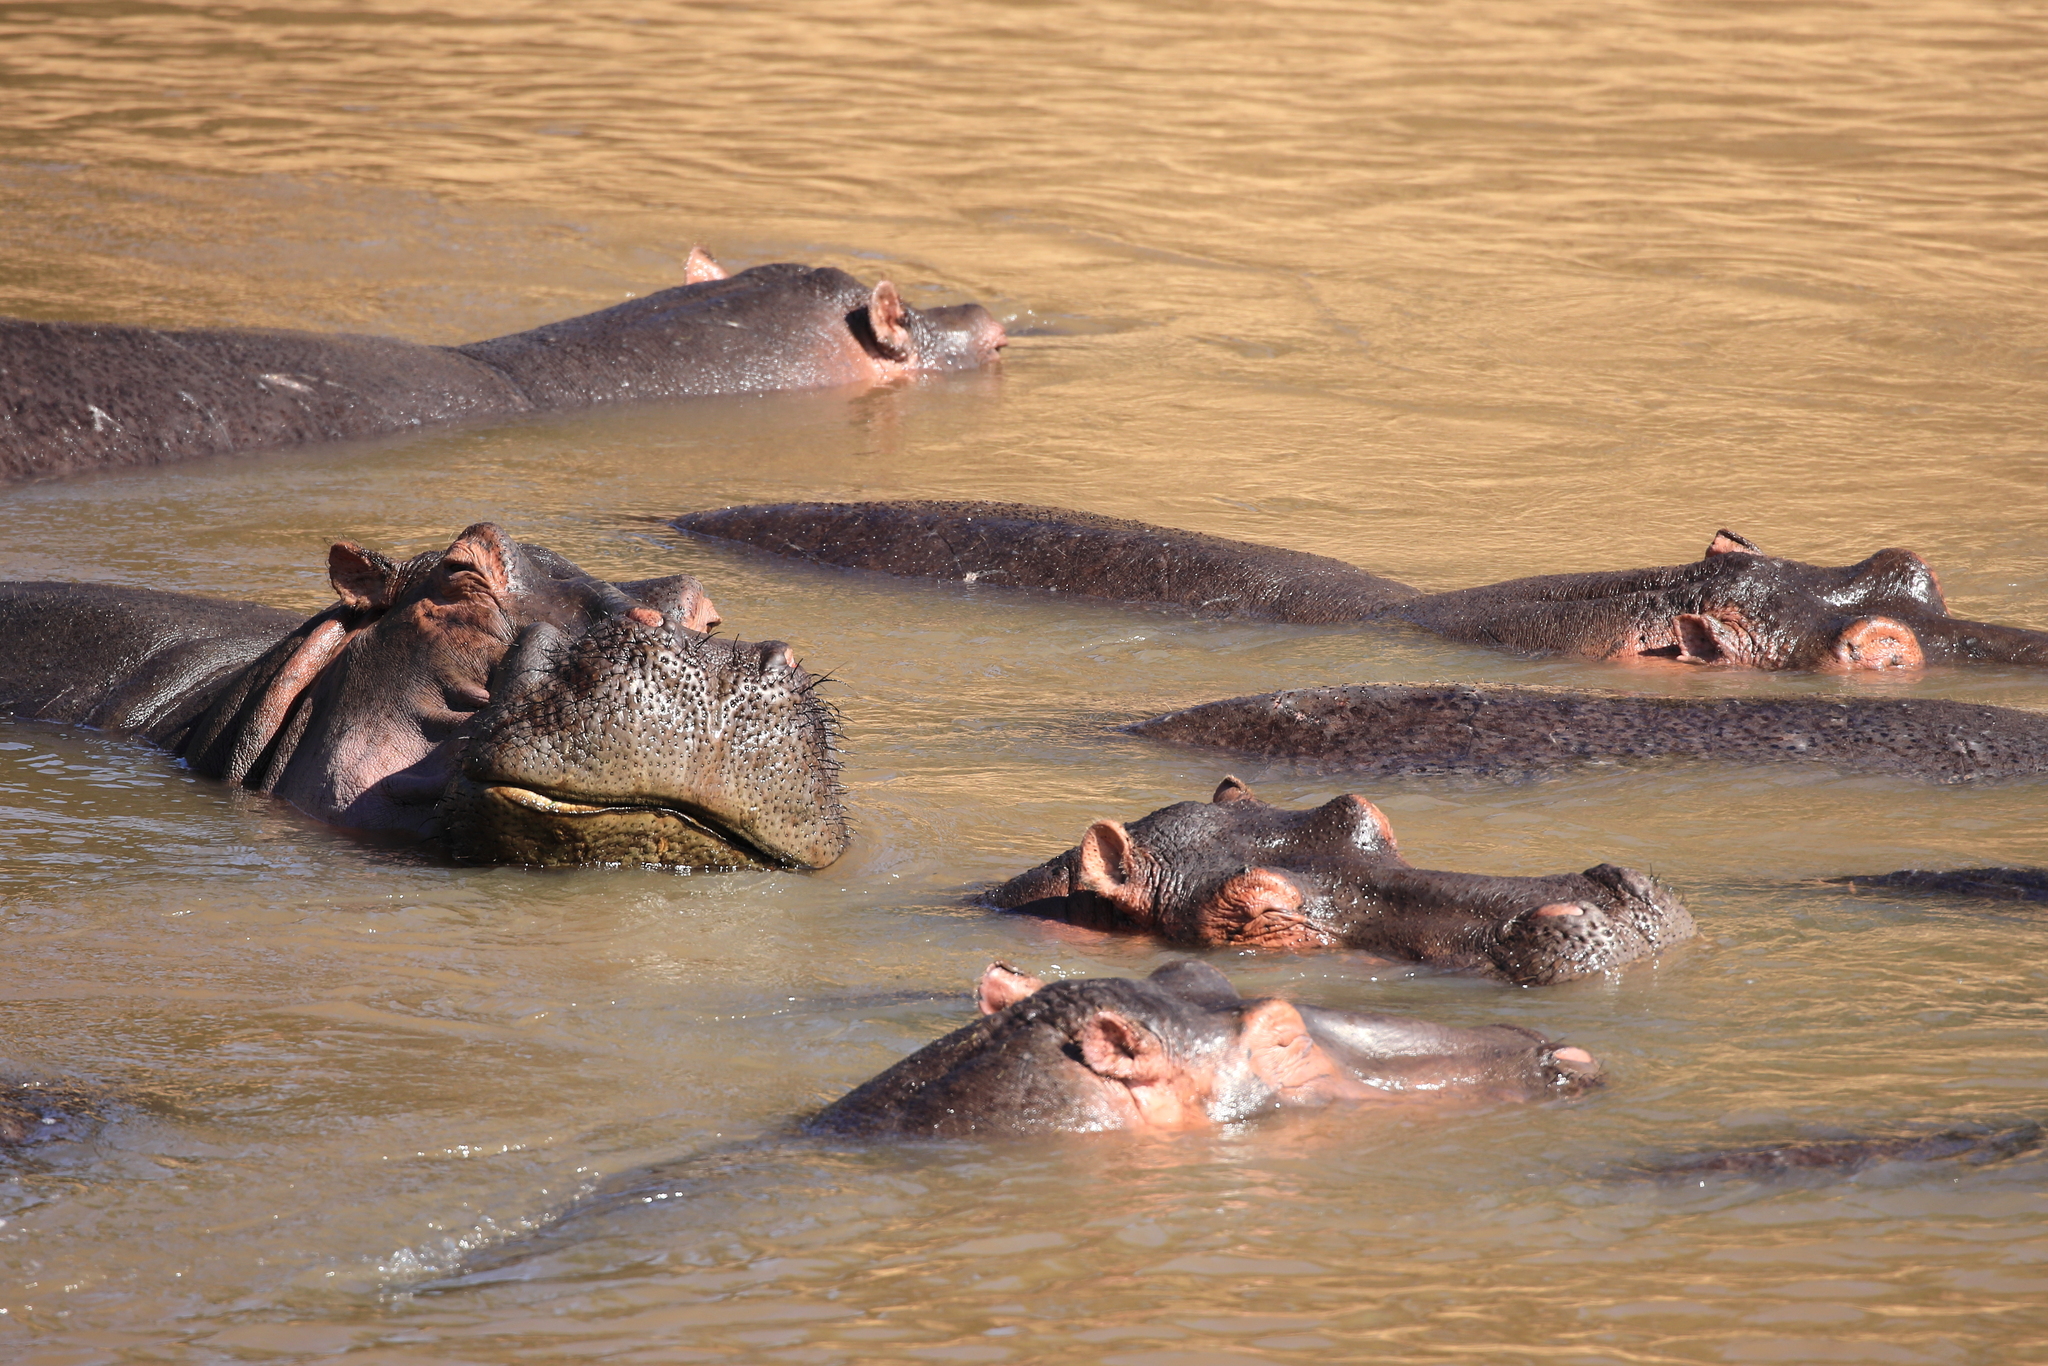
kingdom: Animalia
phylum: Chordata
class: Mammalia
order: Artiodactyla
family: Hippopotamidae
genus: Hippopotamus
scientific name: Hippopotamus amphibius
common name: Common hippopotamus
